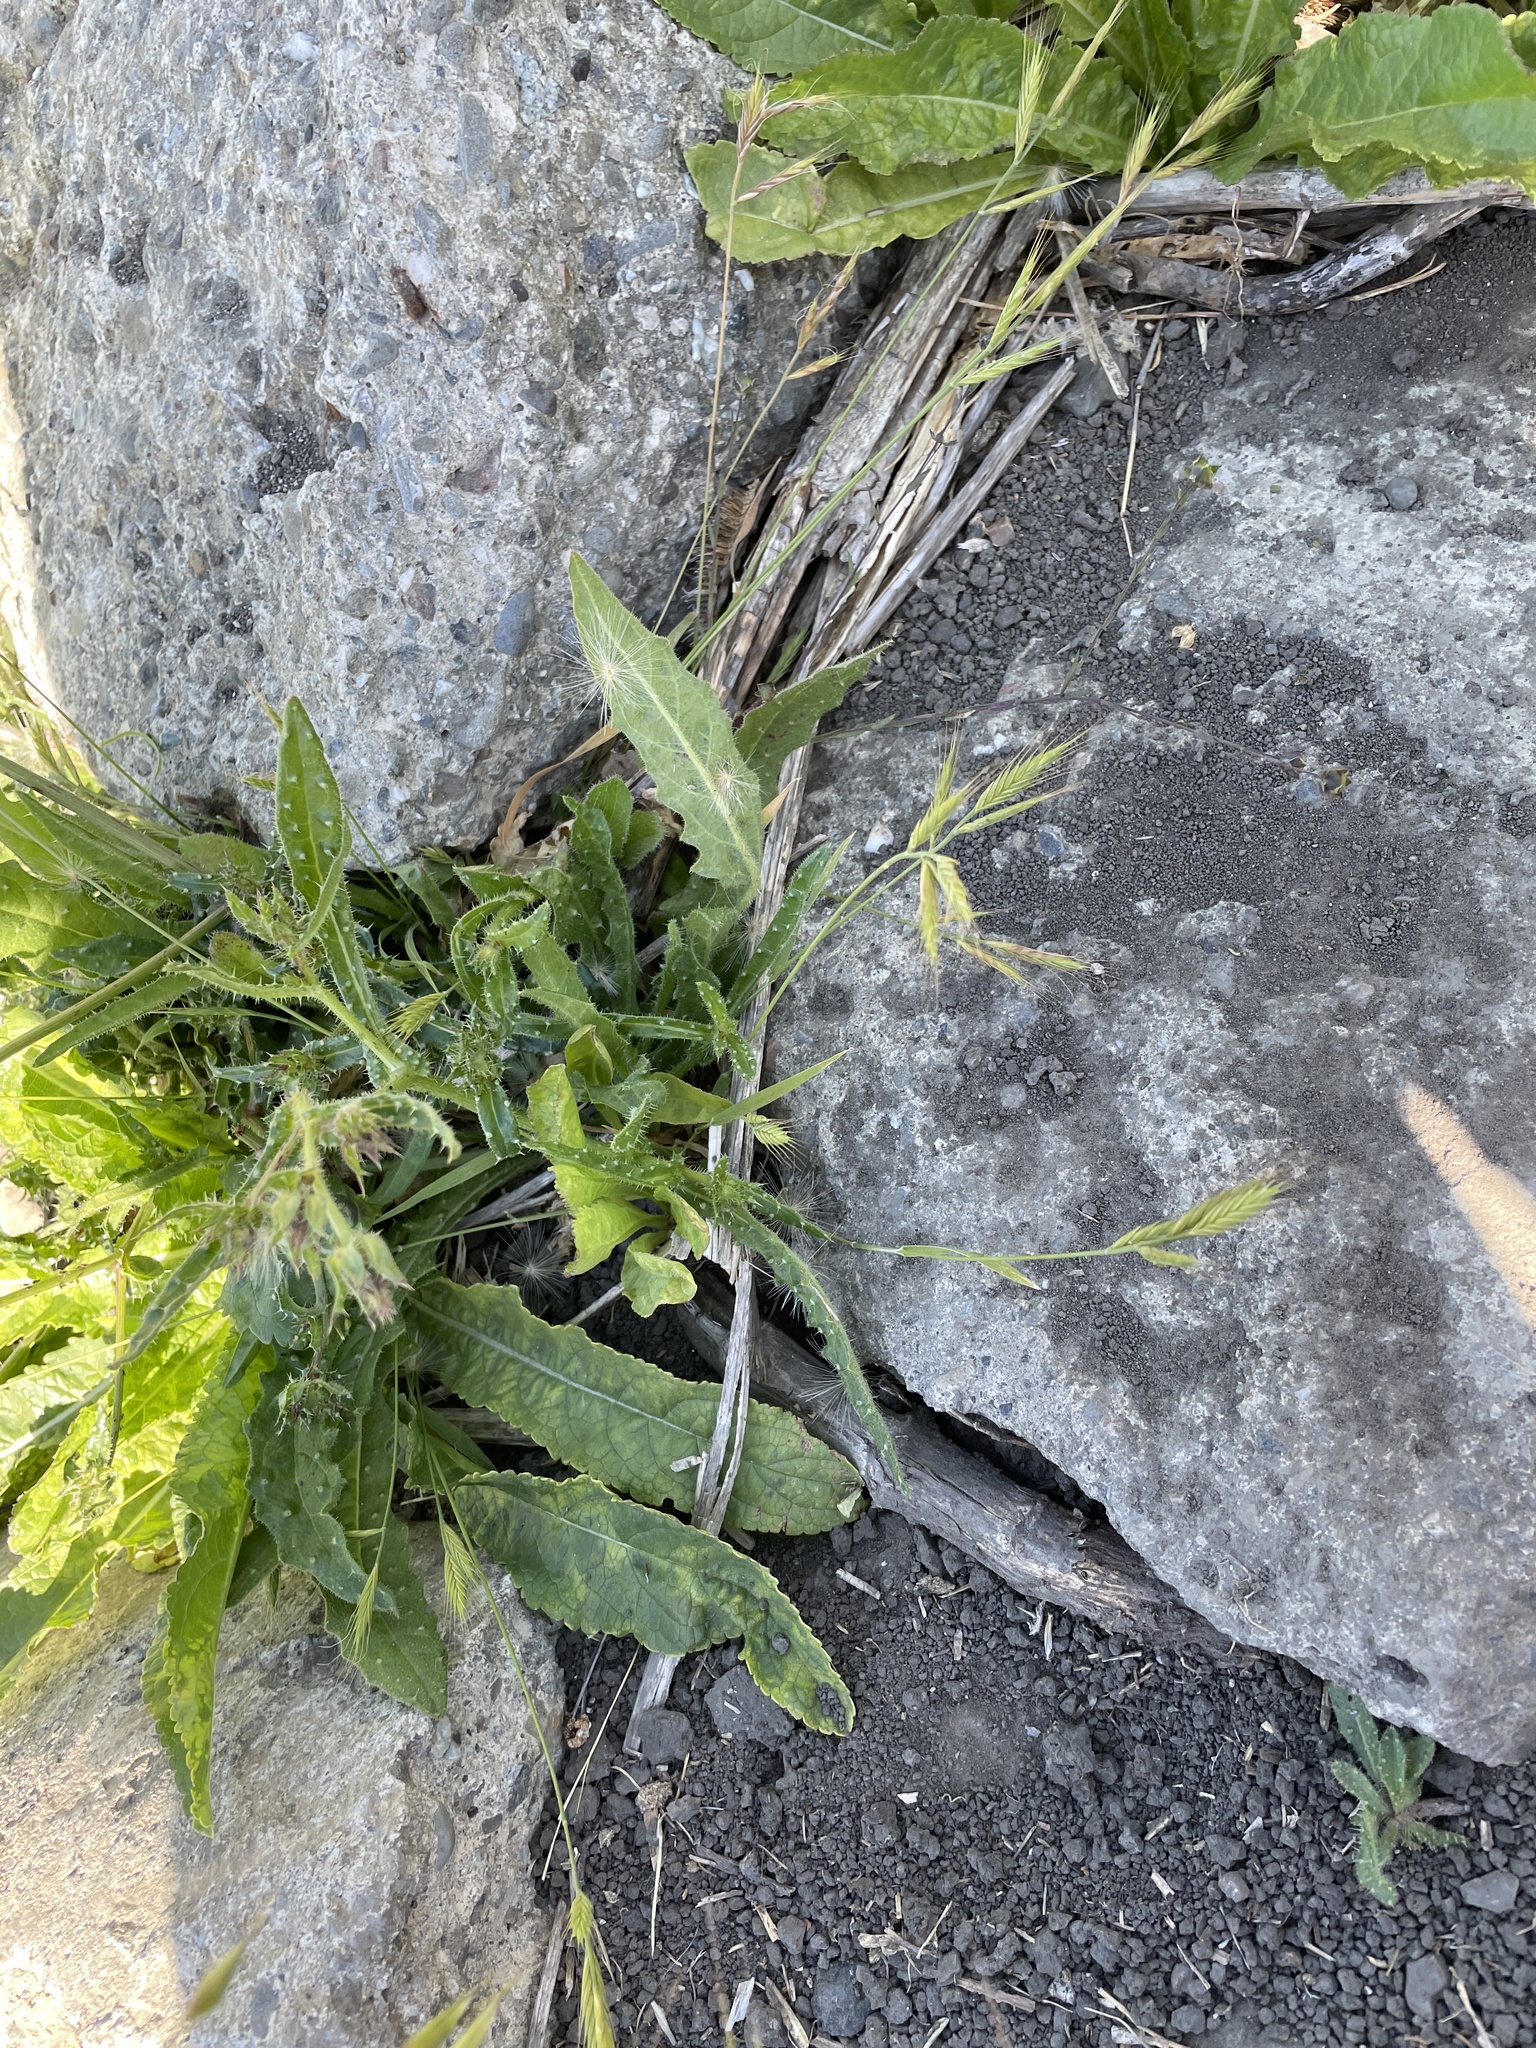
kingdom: Plantae
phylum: Tracheophyta
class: Liliopsida
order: Poales
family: Poaceae
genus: Brachypodium
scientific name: Brachypodium distachyon
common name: Stiff brome
